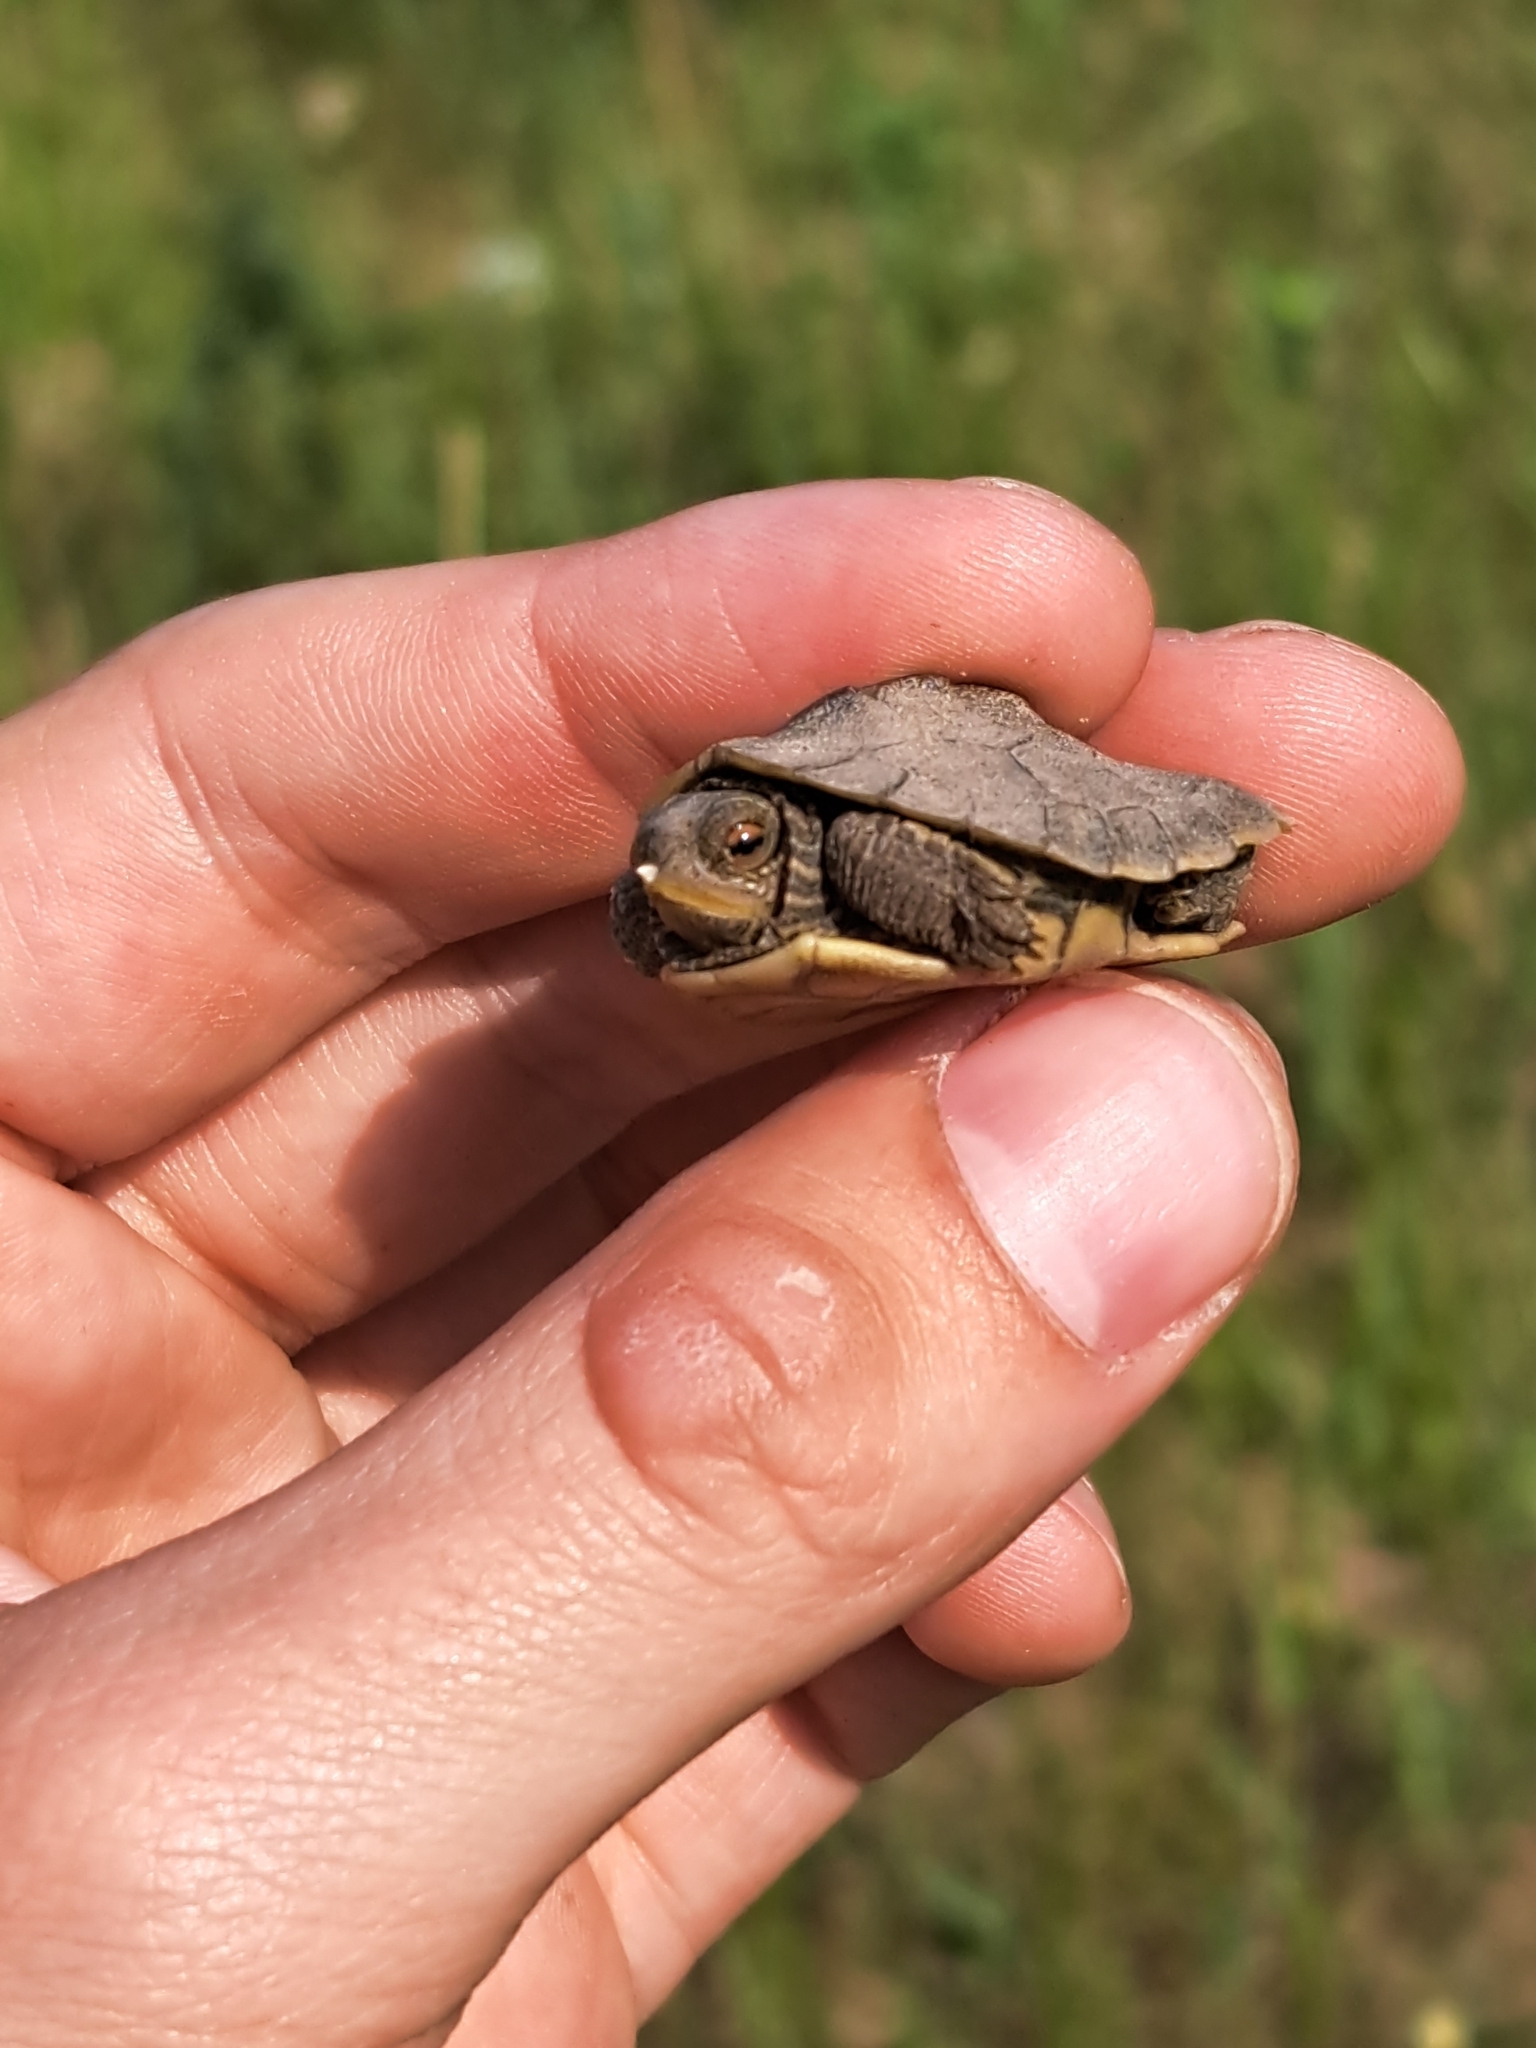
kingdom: Animalia
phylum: Chordata
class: Testudines
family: Emydidae
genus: Graptemys
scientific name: Graptemys geographica
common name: Common map turtle
